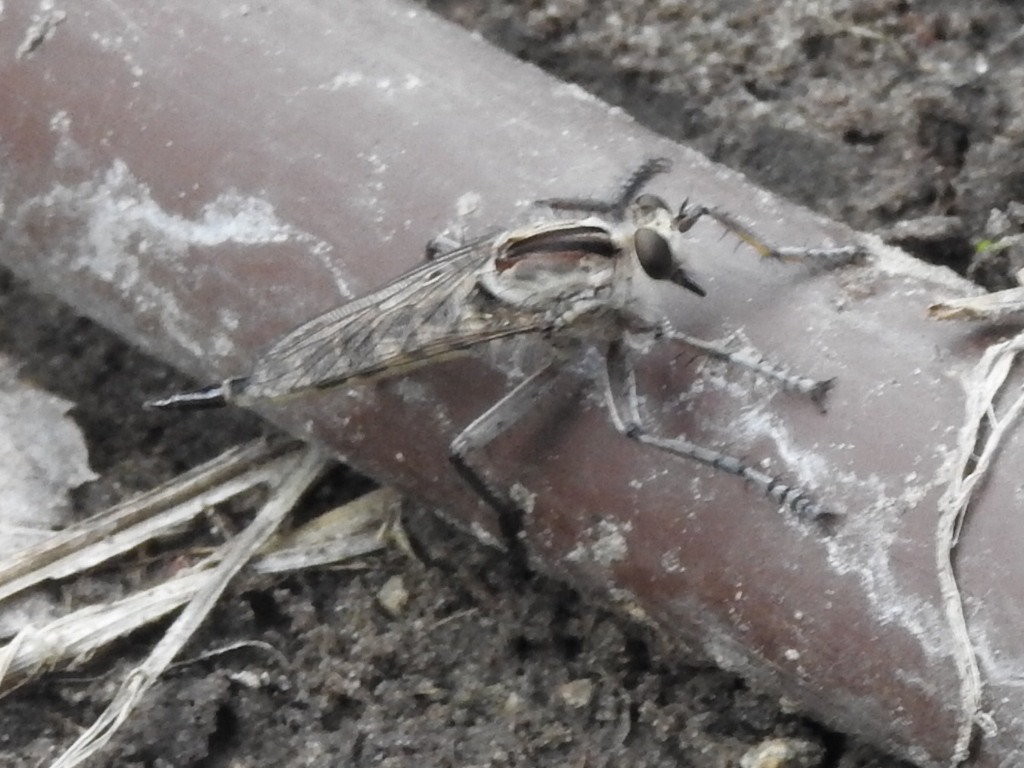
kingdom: Animalia
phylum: Arthropoda
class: Insecta
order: Diptera
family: Asilidae
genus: Triorla
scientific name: Triorla interrupta
